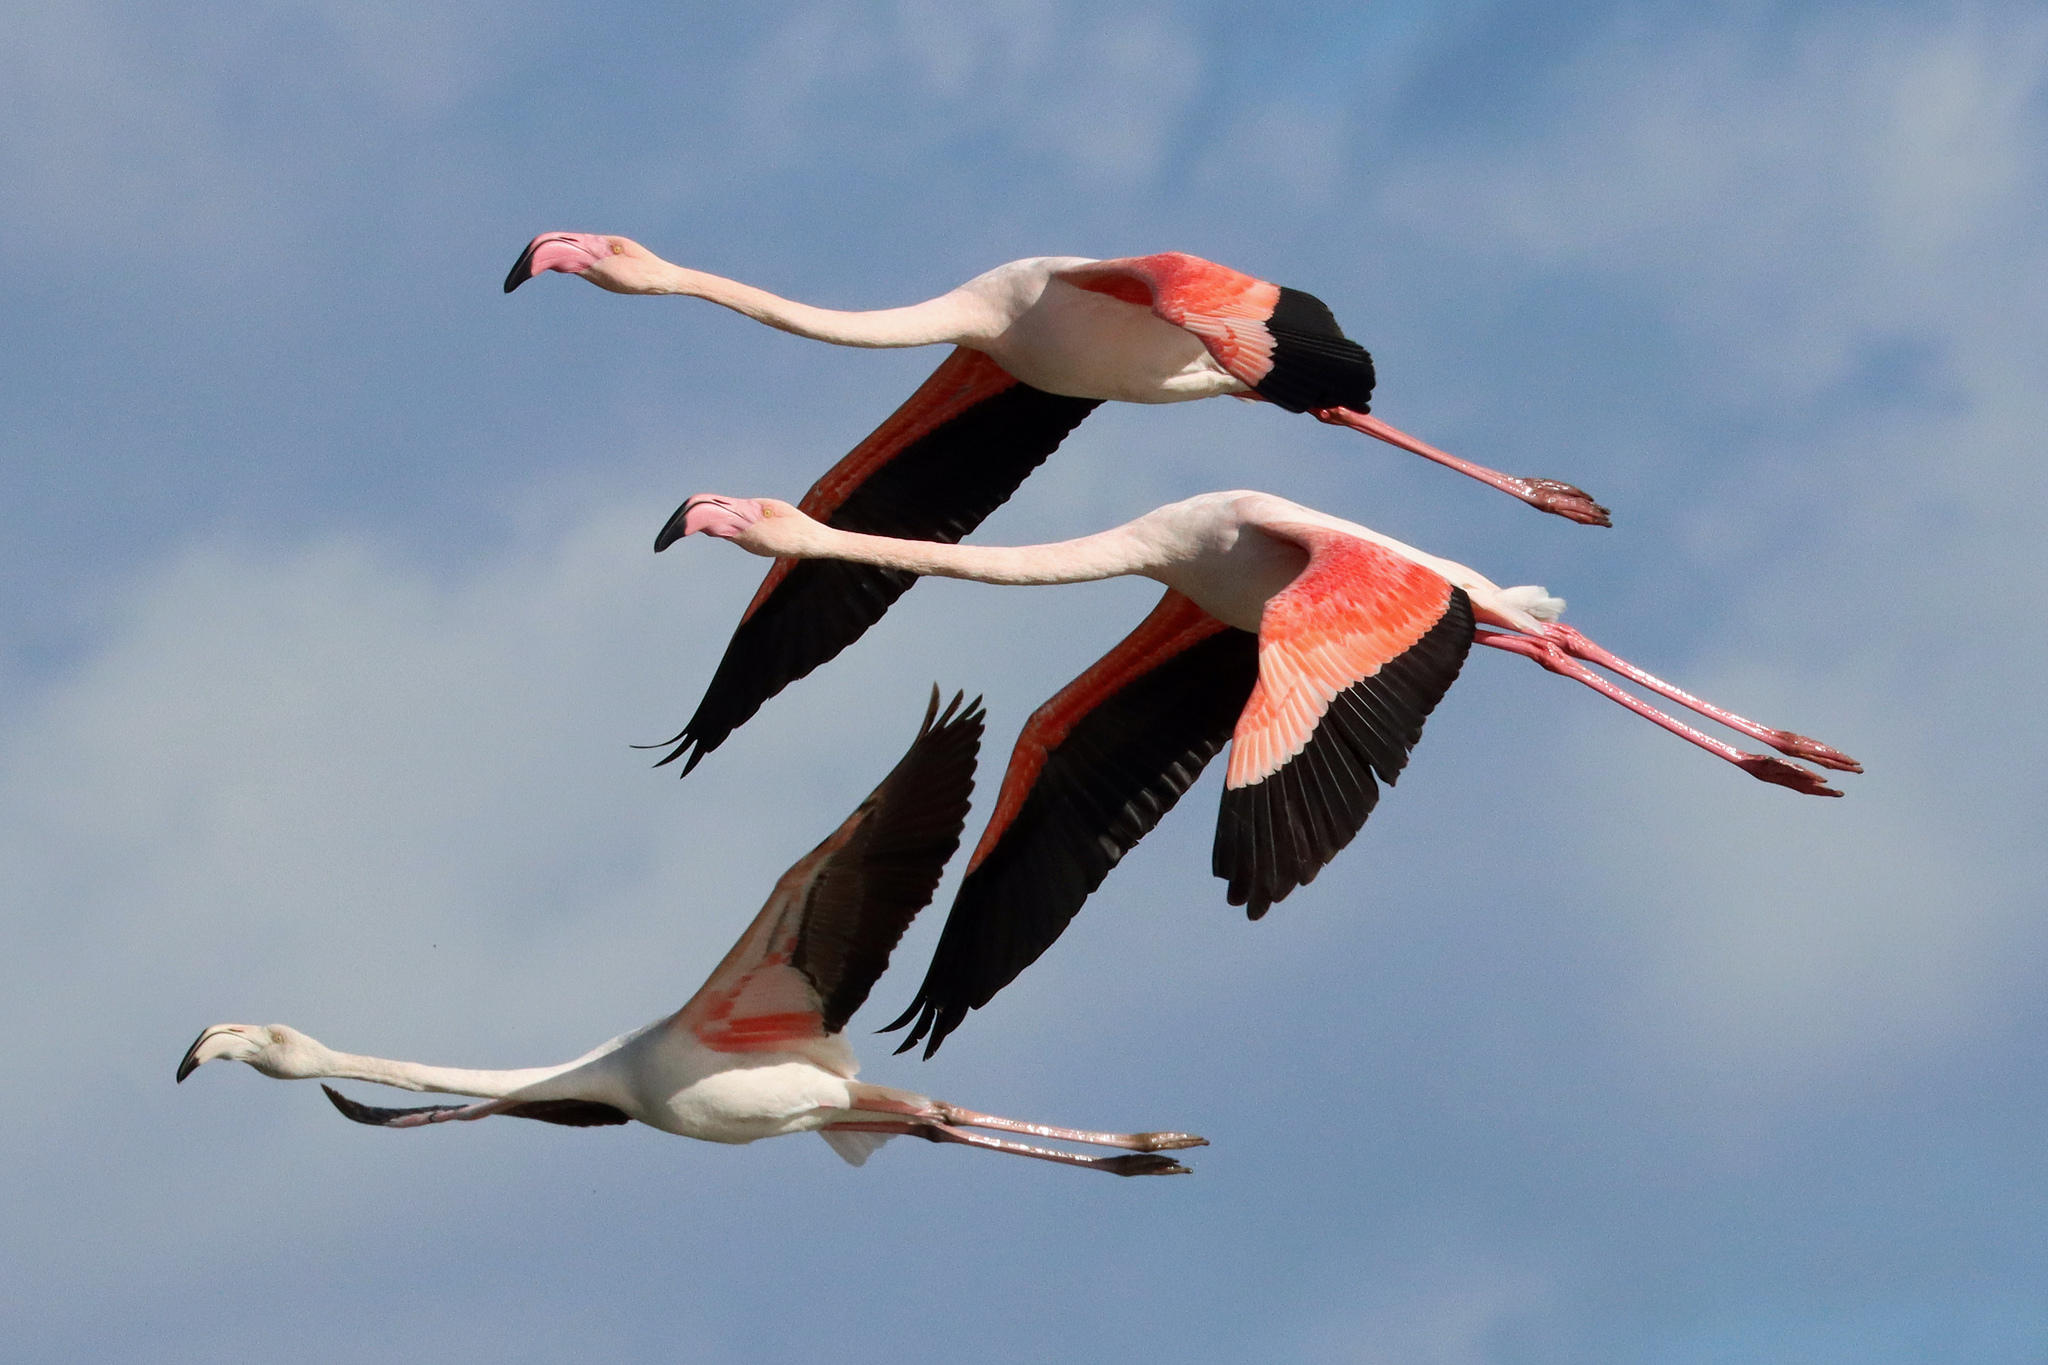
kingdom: Animalia
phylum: Chordata
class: Aves
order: Phoenicopteriformes
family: Phoenicopteridae
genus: Phoenicopterus
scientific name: Phoenicopterus roseus
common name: Greater flamingo
